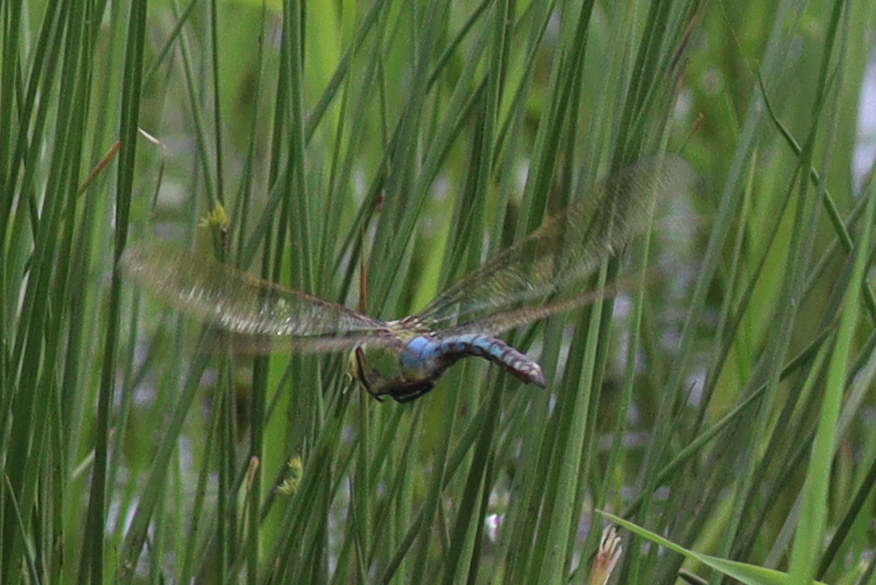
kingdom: Animalia
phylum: Arthropoda
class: Insecta
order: Odonata
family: Aeshnidae
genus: Anax
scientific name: Anax imperator
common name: Emperor dragonfly
